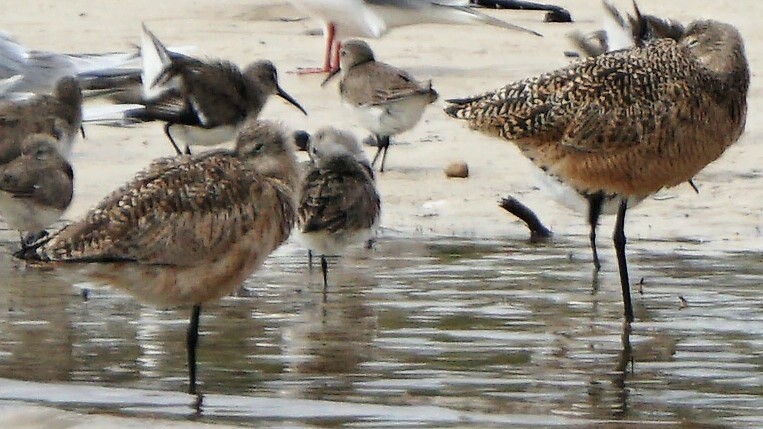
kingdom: Animalia
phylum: Chordata
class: Aves
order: Charadriiformes
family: Scolopacidae
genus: Limosa
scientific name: Limosa fedoa
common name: Marbled godwit
